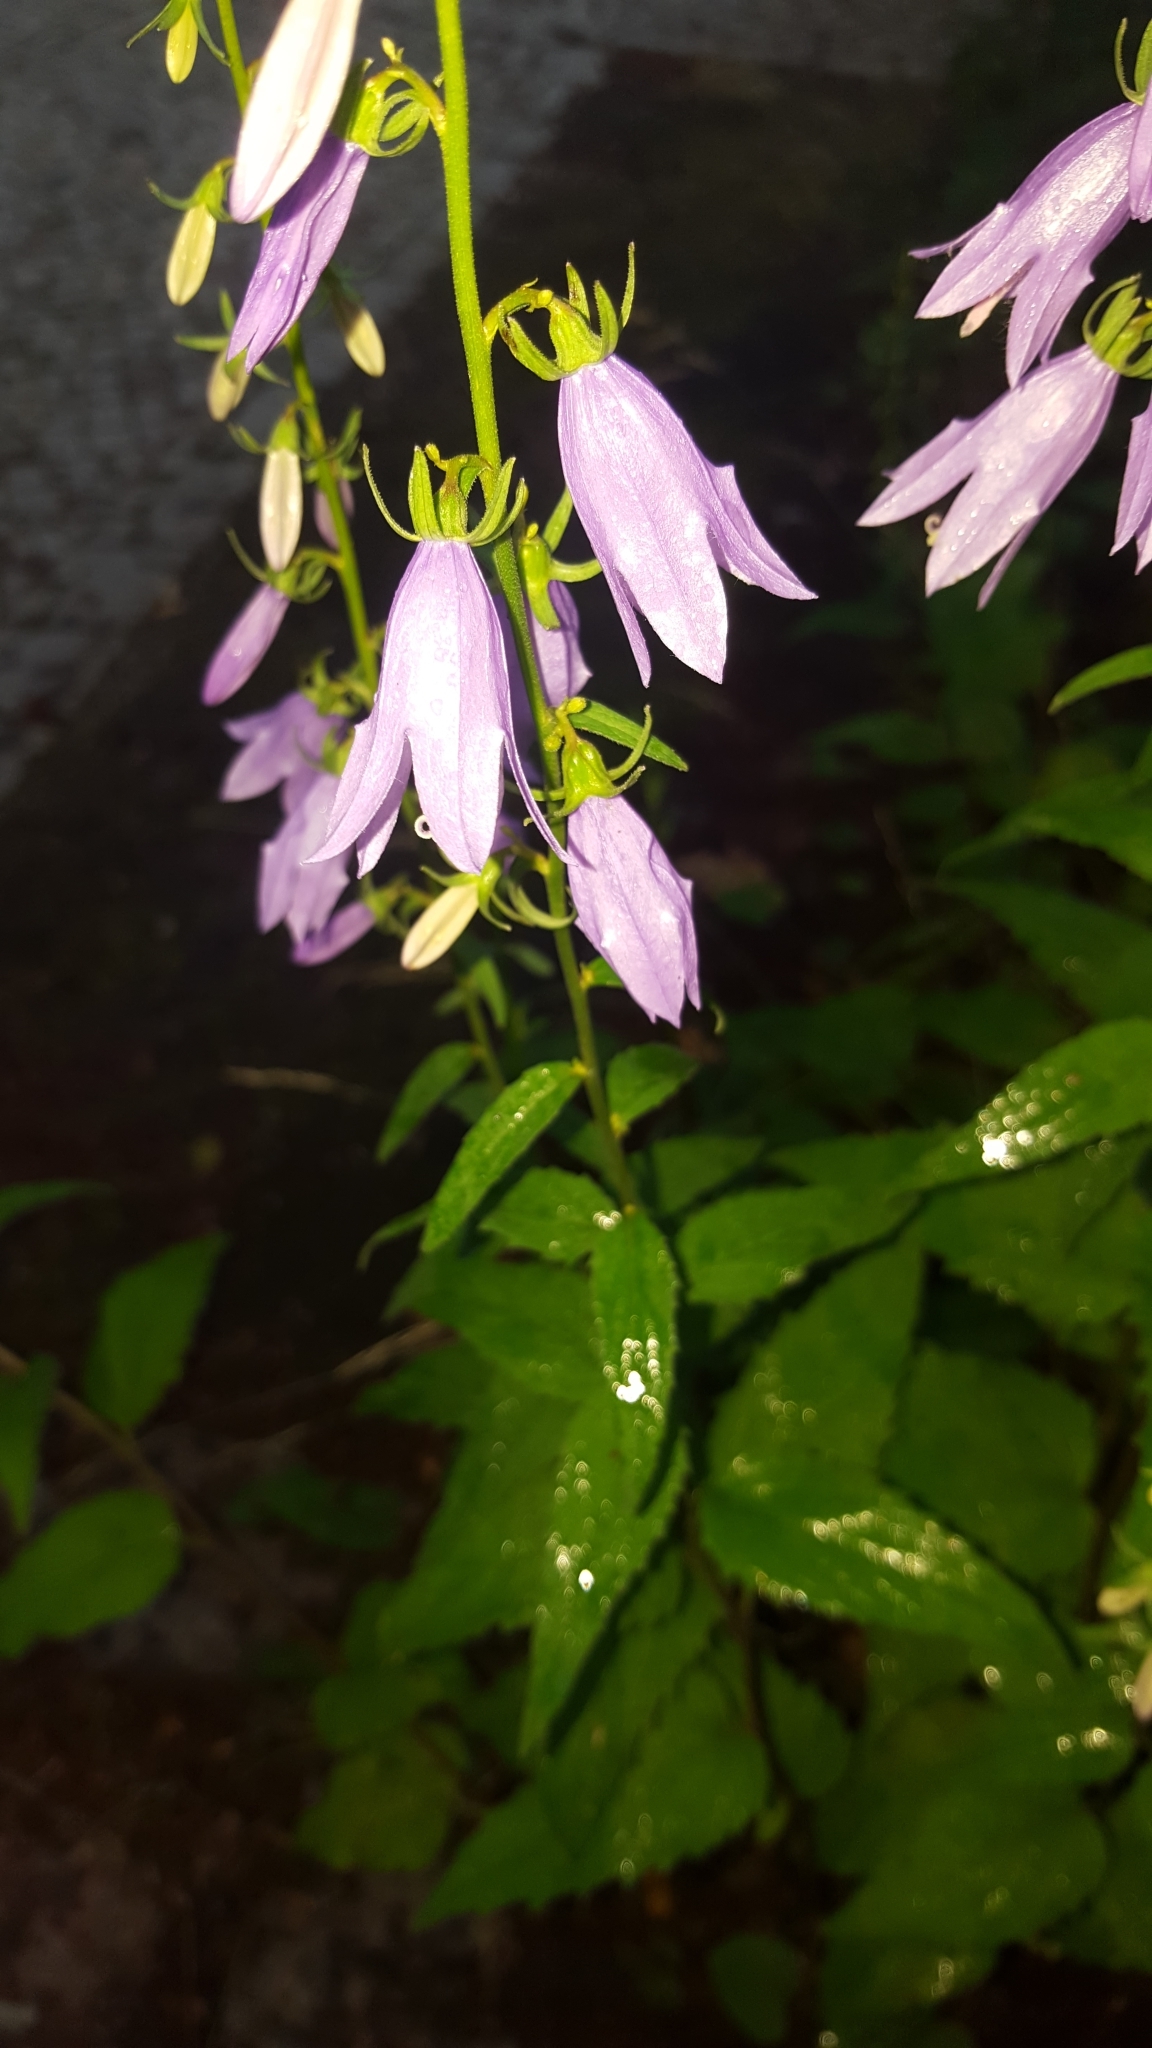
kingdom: Plantae
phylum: Tracheophyta
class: Magnoliopsida
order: Asterales
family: Campanulaceae
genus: Campanula
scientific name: Campanula rapunculoides
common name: Creeping bellflower
